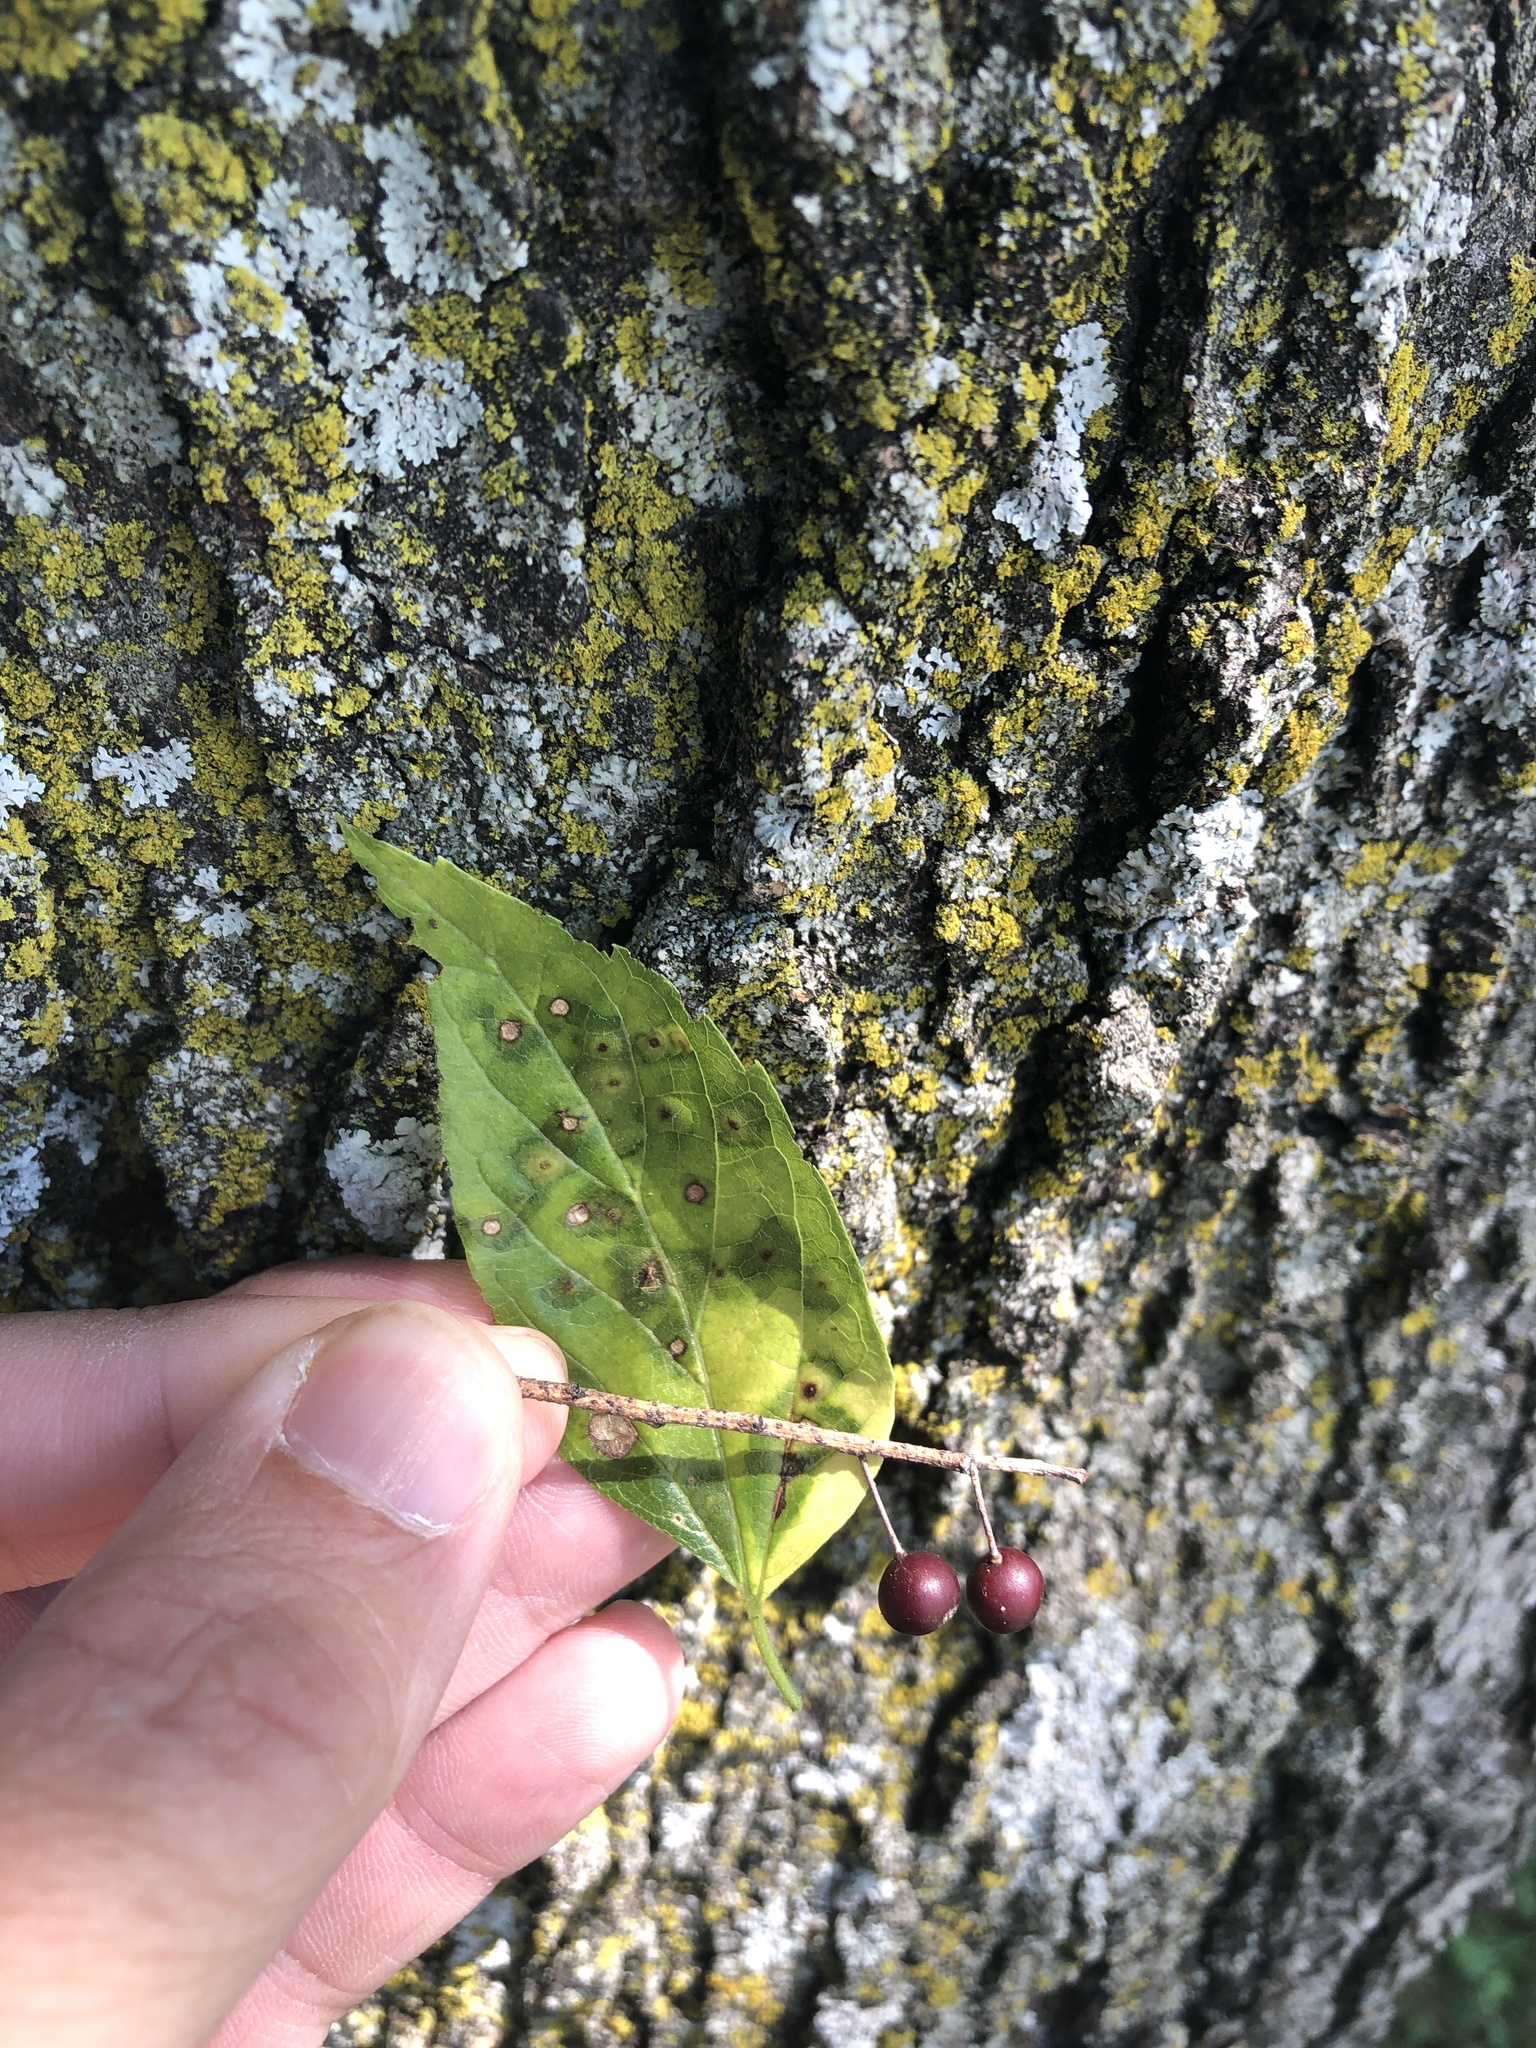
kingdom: Plantae
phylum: Tracheophyta
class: Magnoliopsida
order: Rosales
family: Cannabaceae
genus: Celtis
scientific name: Celtis laevigata
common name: Sugarberry
